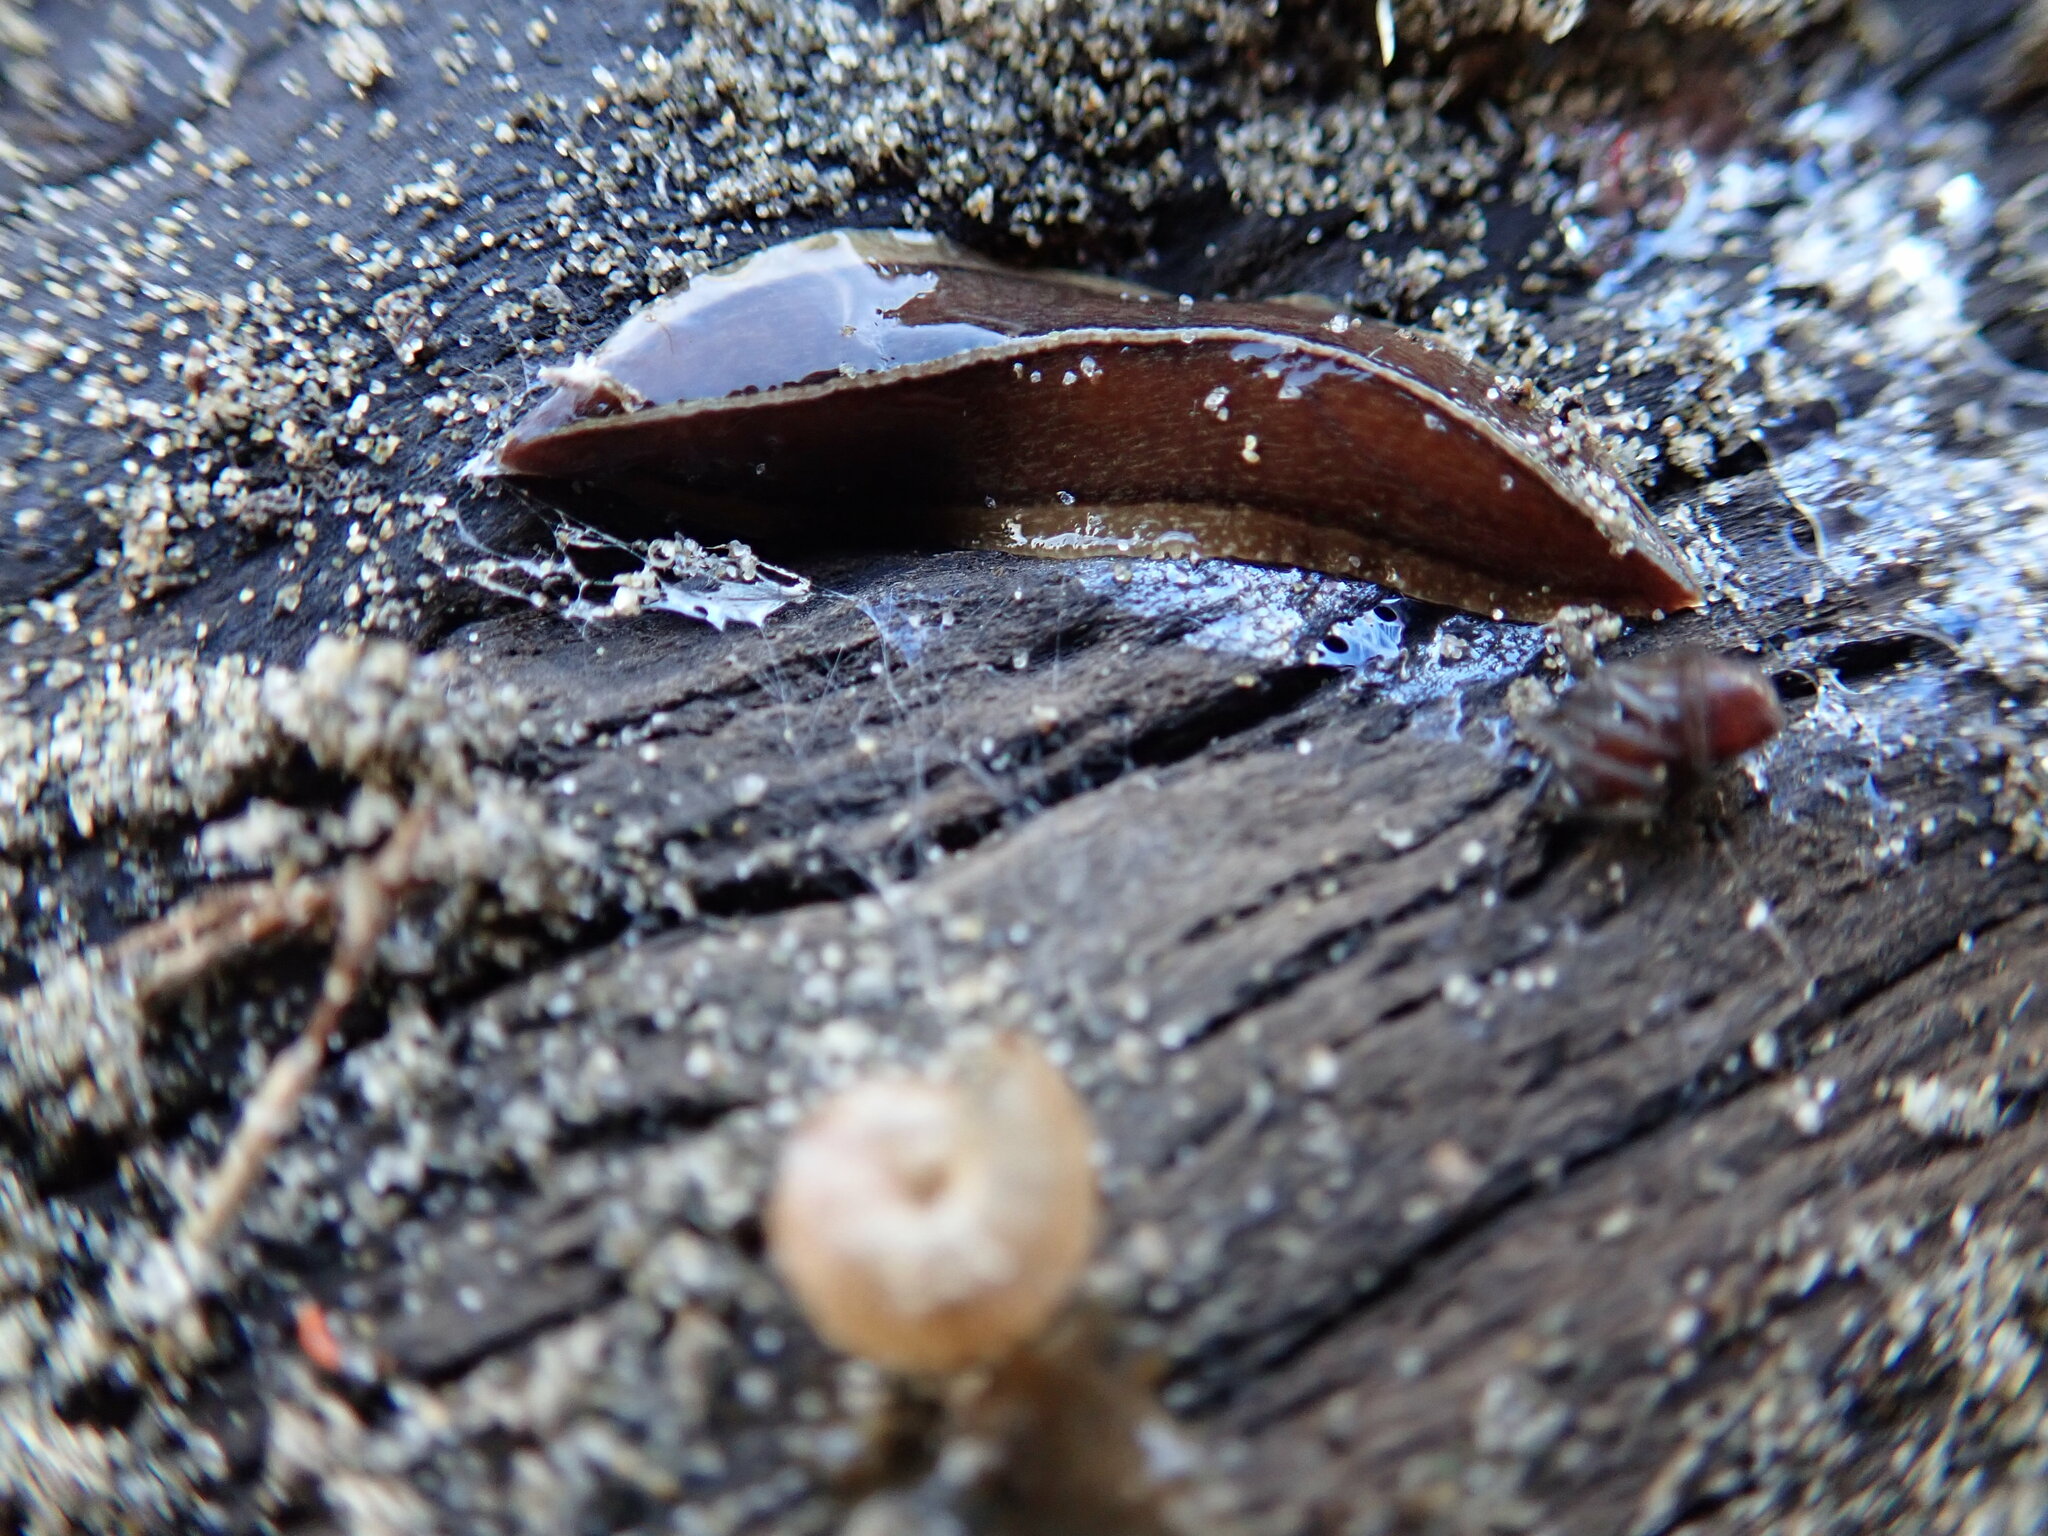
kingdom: Animalia
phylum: Mollusca
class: Gastropoda
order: Stylommatophora
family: Geomitridae
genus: Xeroplexa
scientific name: Xeroplexa intersecta
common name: Wrinkled snail
